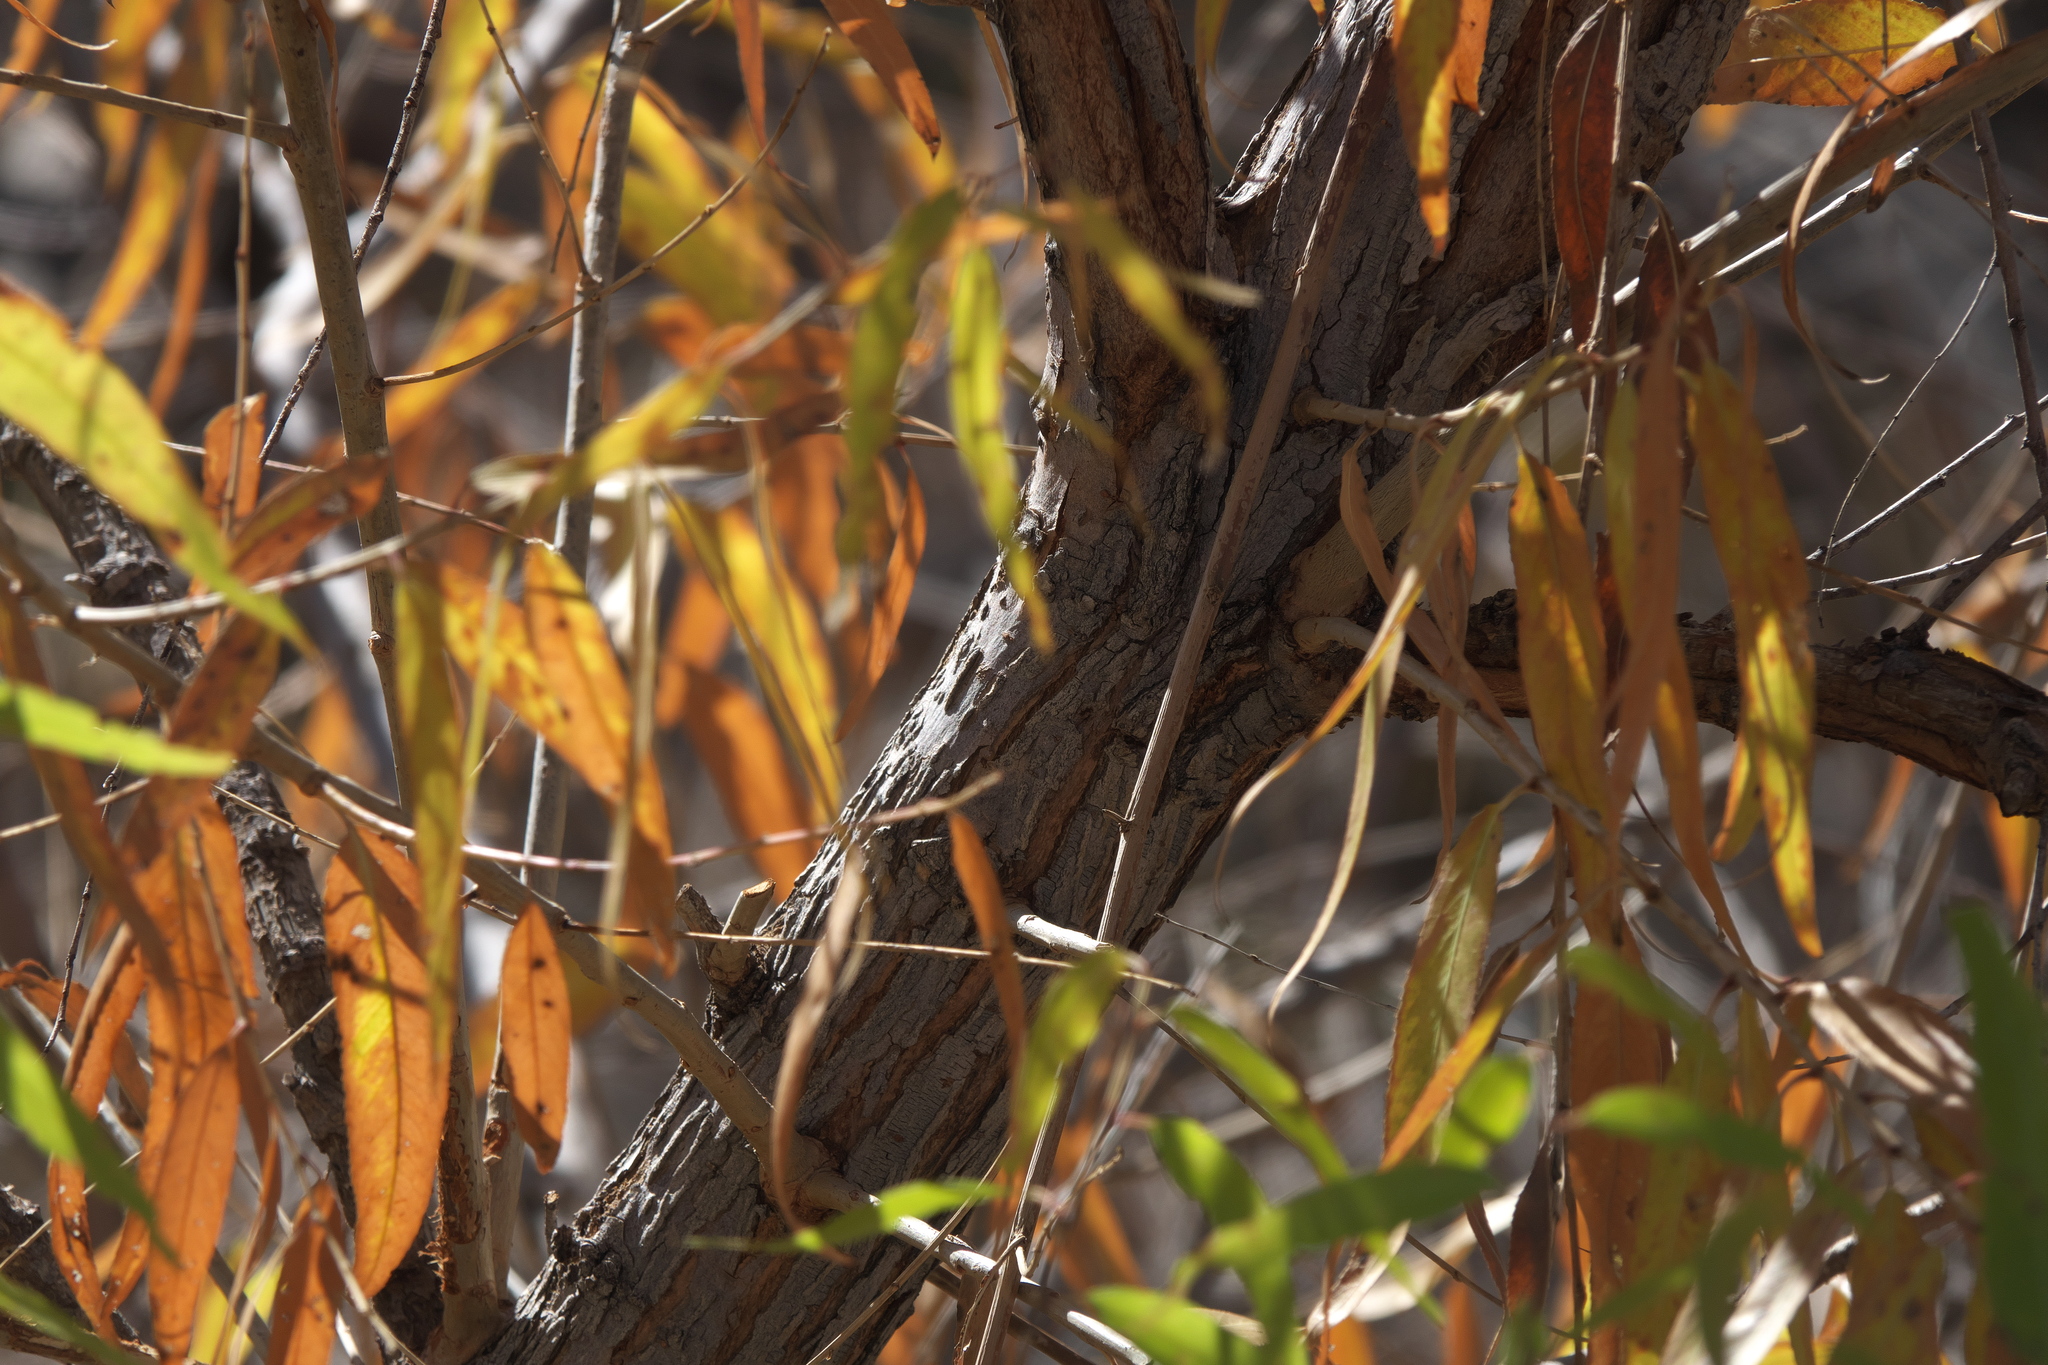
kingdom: Plantae
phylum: Tracheophyta
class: Magnoliopsida
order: Malpighiales
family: Salicaceae
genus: Salix
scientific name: Salix gooddingii
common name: Goodding's willow
